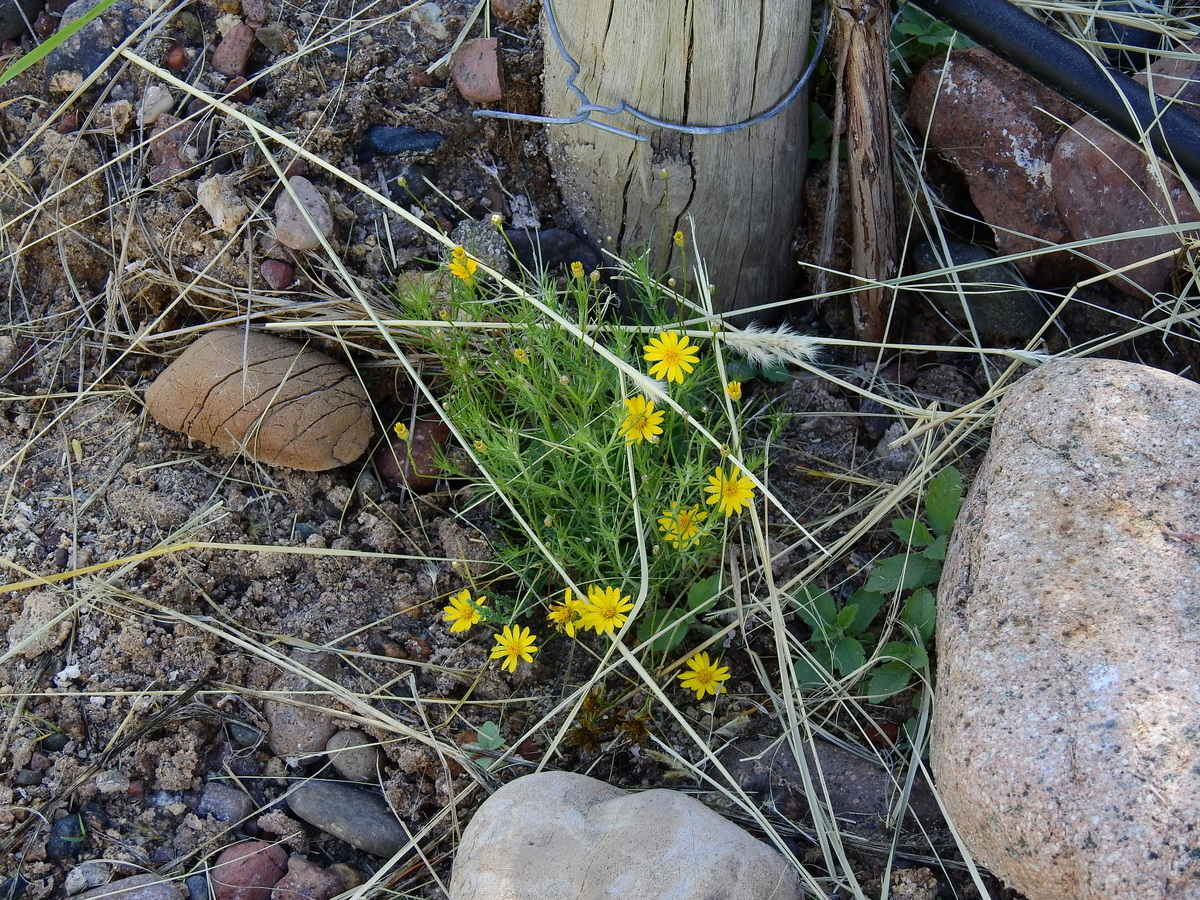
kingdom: Plantae
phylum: Tracheophyta
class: Magnoliopsida
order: Asterales
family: Asteraceae
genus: Thymophylla
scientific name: Thymophylla pentachaeta
